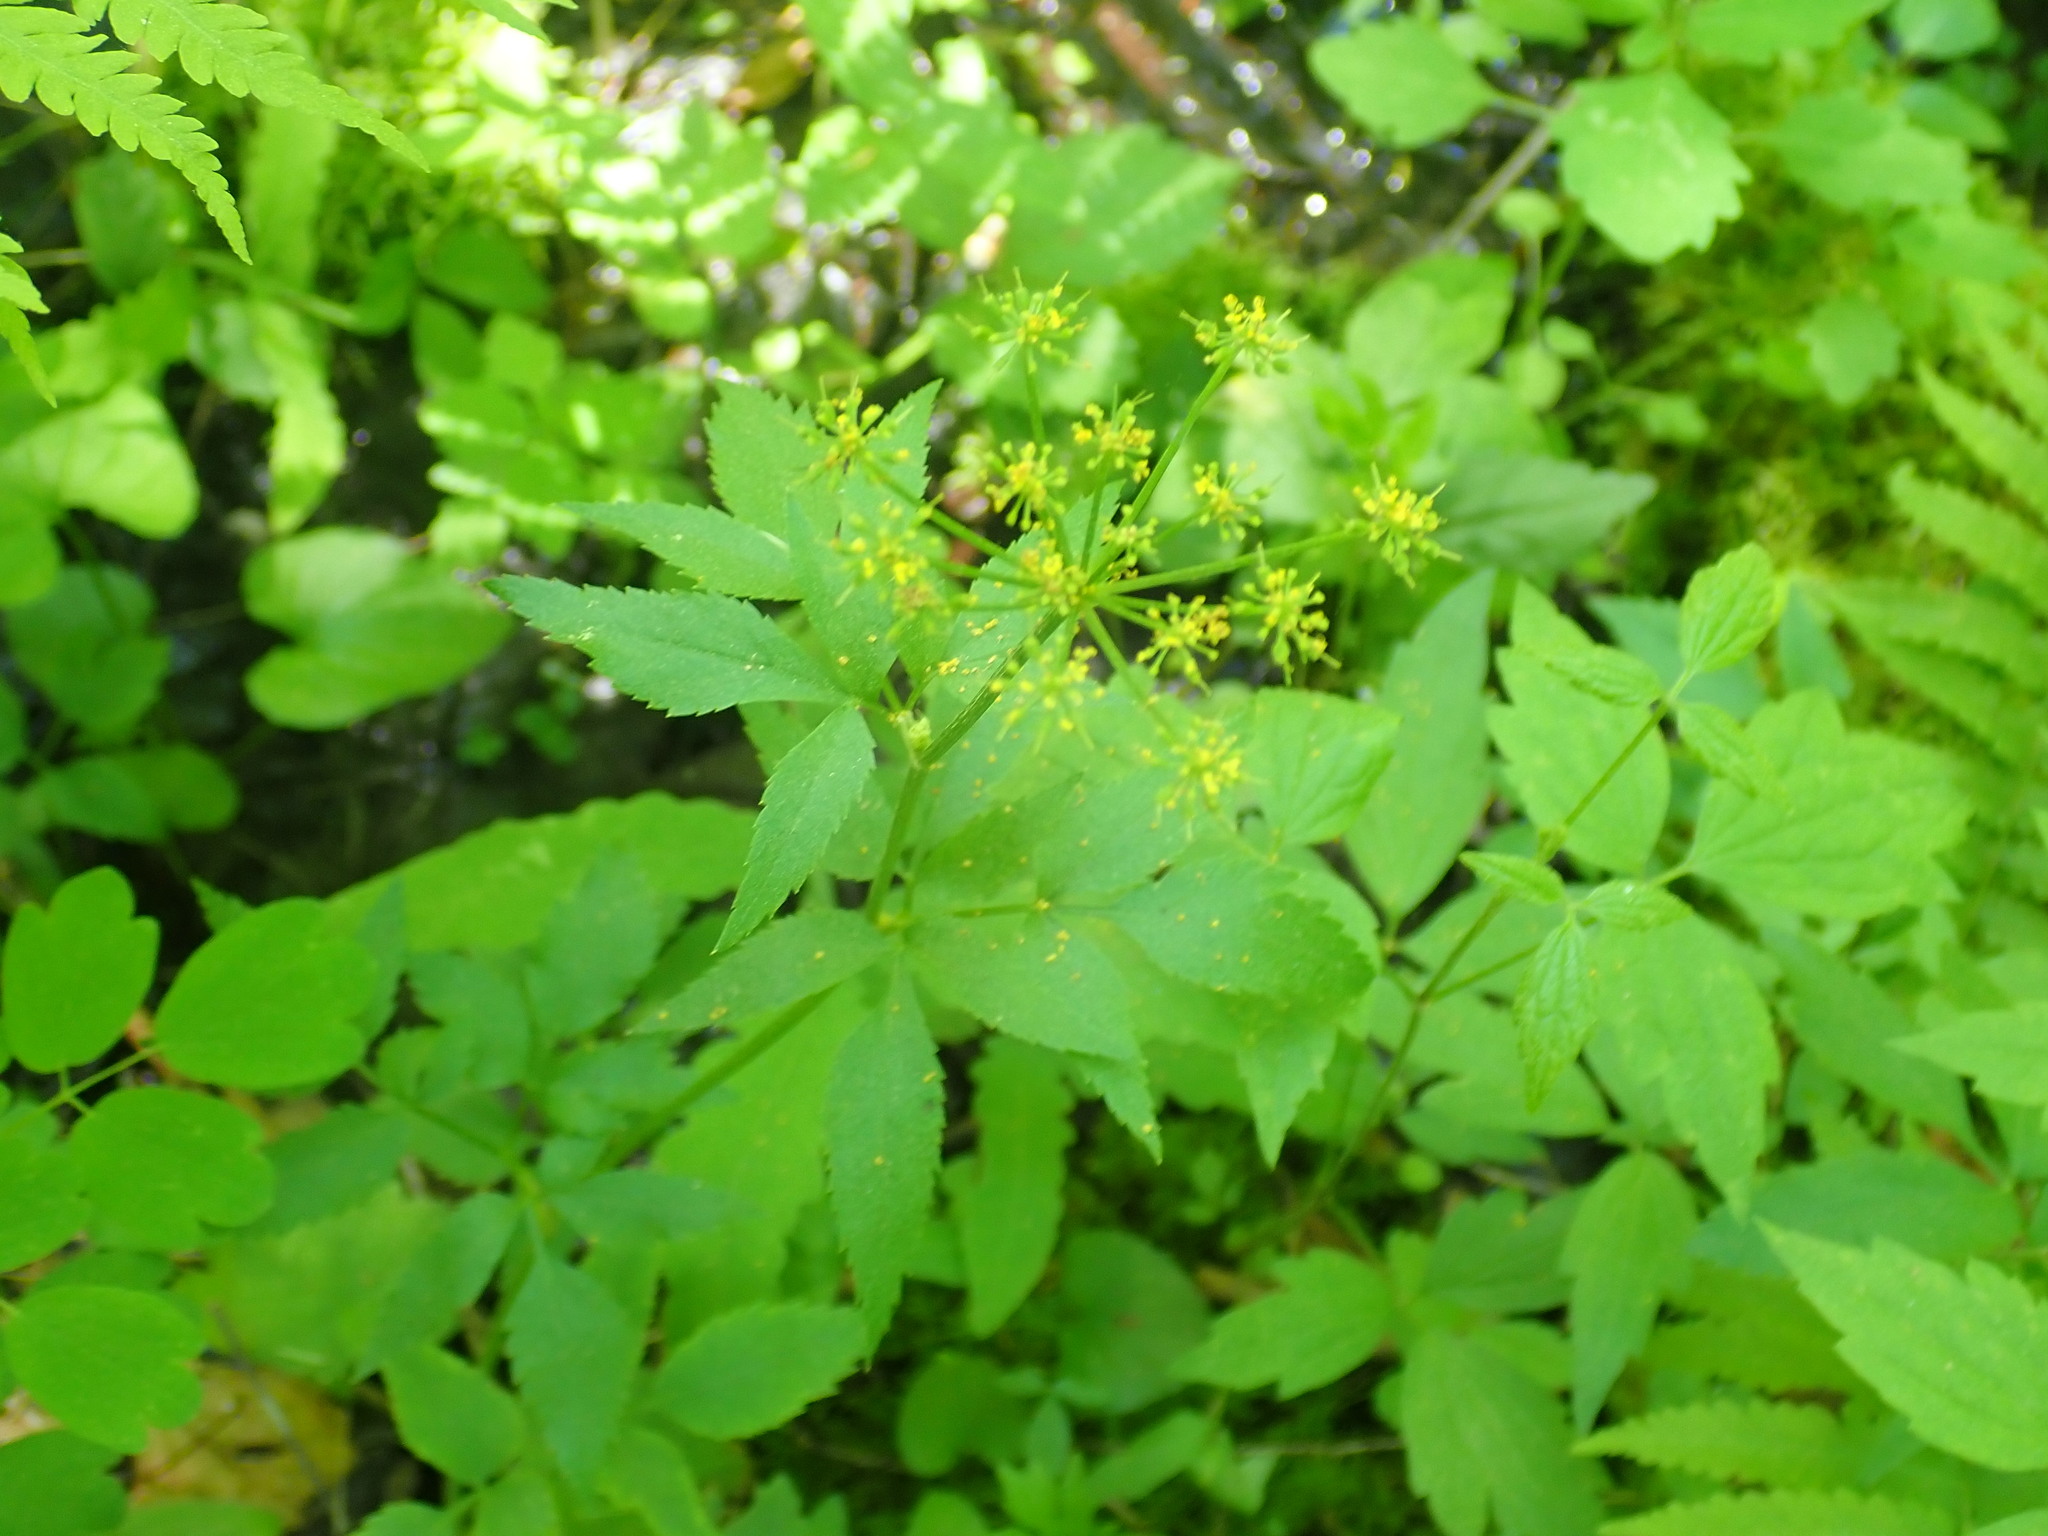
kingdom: Plantae
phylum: Tracheophyta
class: Magnoliopsida
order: Apiales
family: Apiaceae
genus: Zizia
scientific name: Zizia aurea
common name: Golden alexanders
